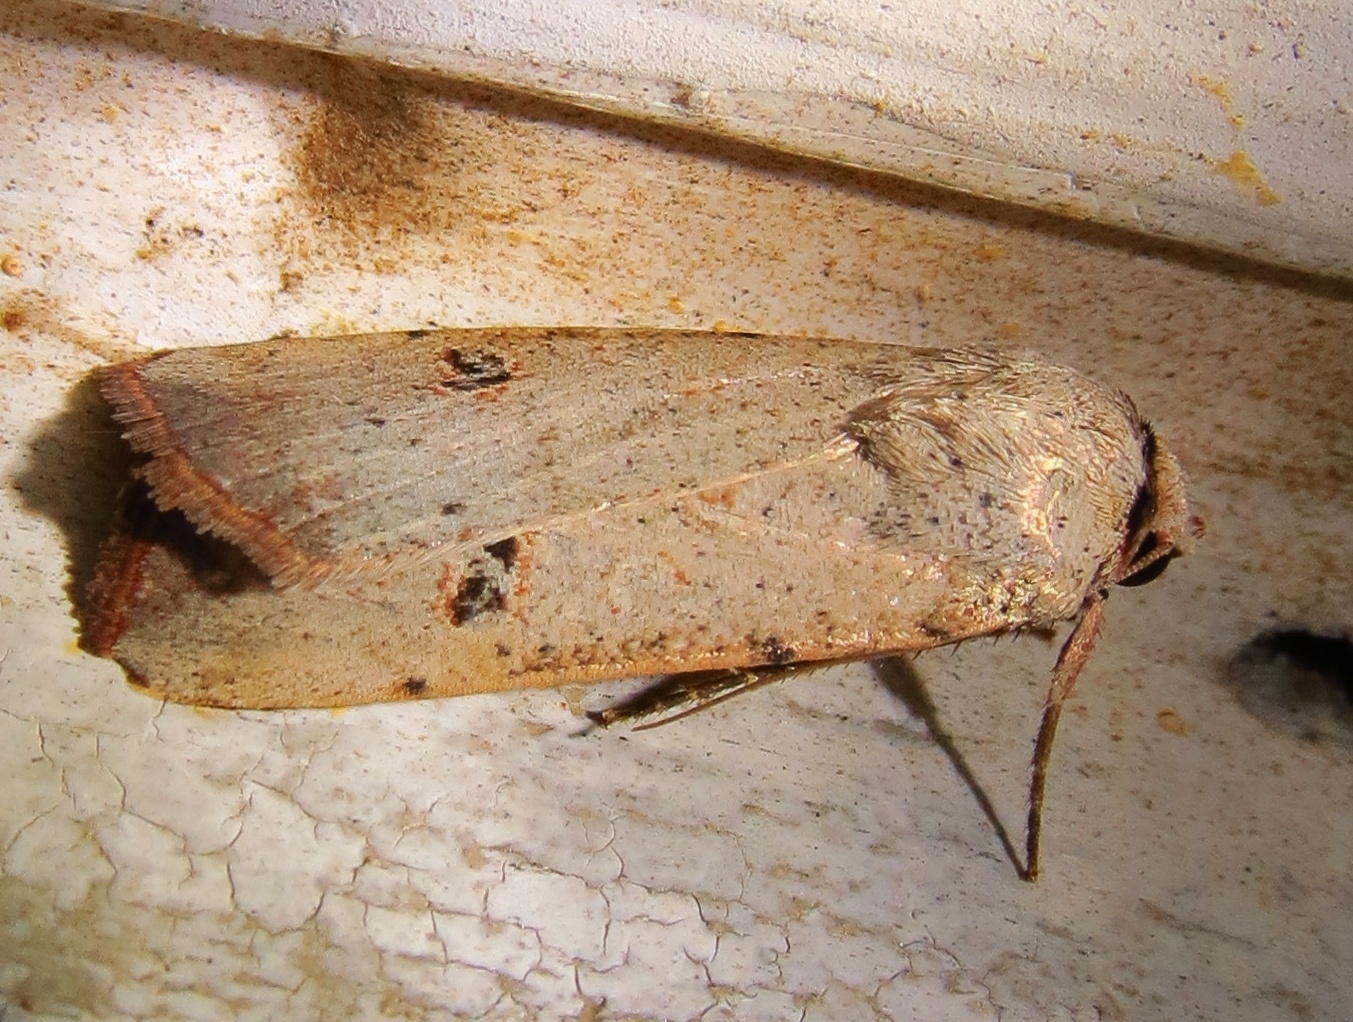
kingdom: Animalia
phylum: Arthropoda
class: Insecta
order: Lepidoptera
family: Noctuidae
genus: Anicla
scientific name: Anicla infecta
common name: Green cutworm
